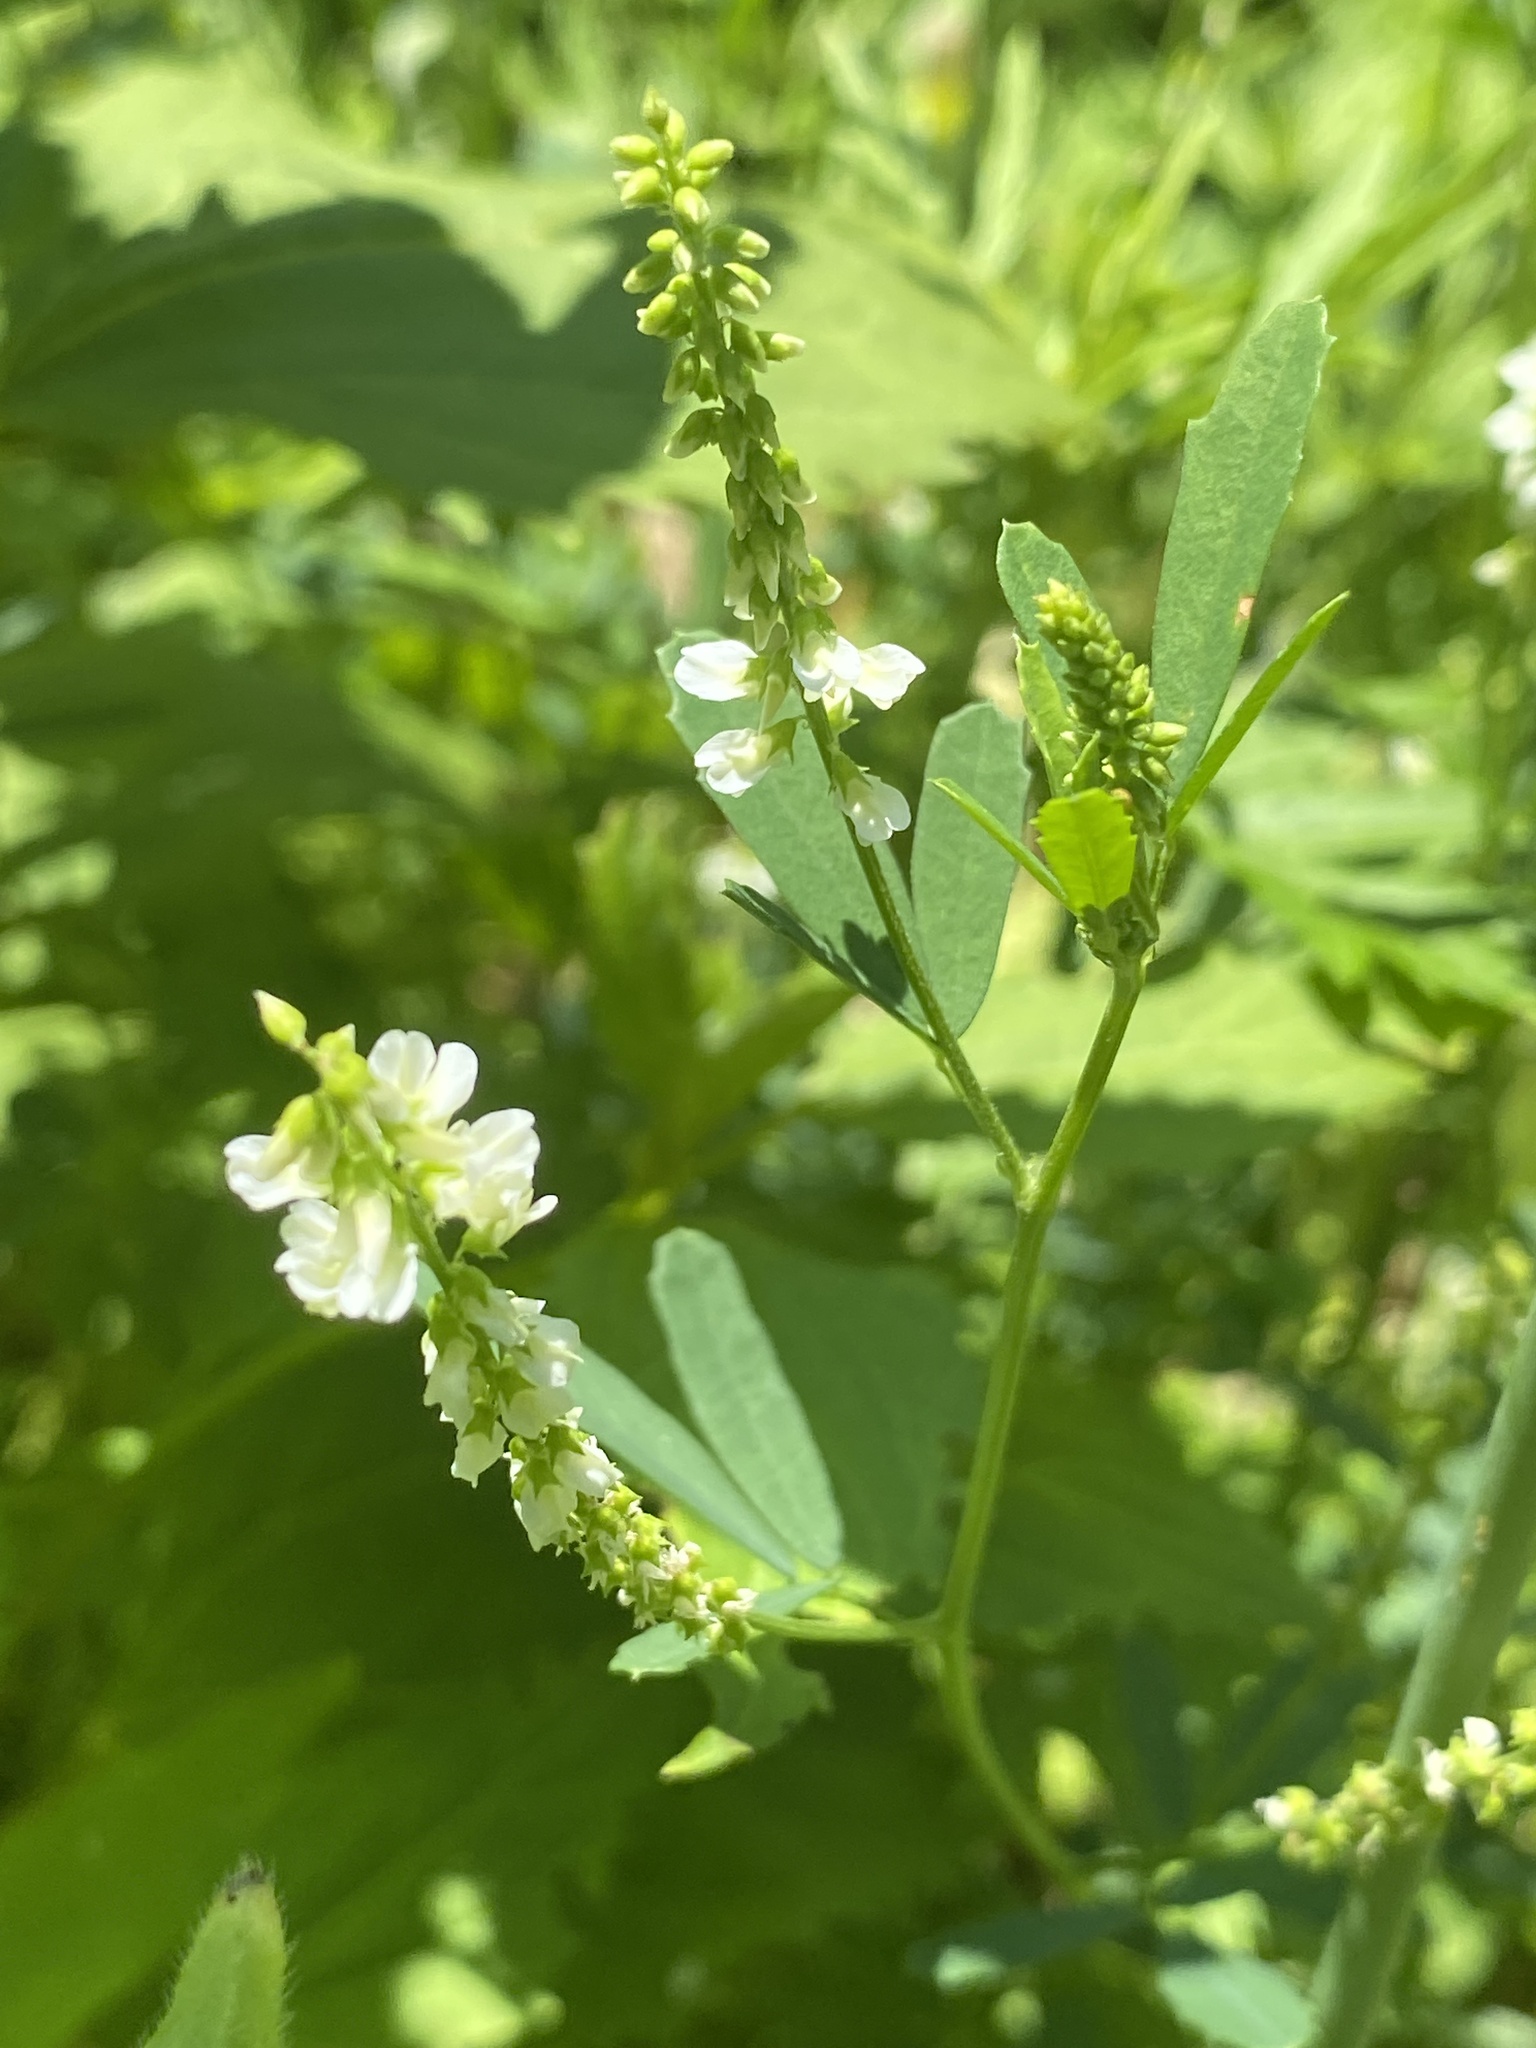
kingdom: Plantae
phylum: Tracheophyta
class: Magnoliopsida
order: Fabales
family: Fabaceae
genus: Melilotus
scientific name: Melilotus albus
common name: White melilot
